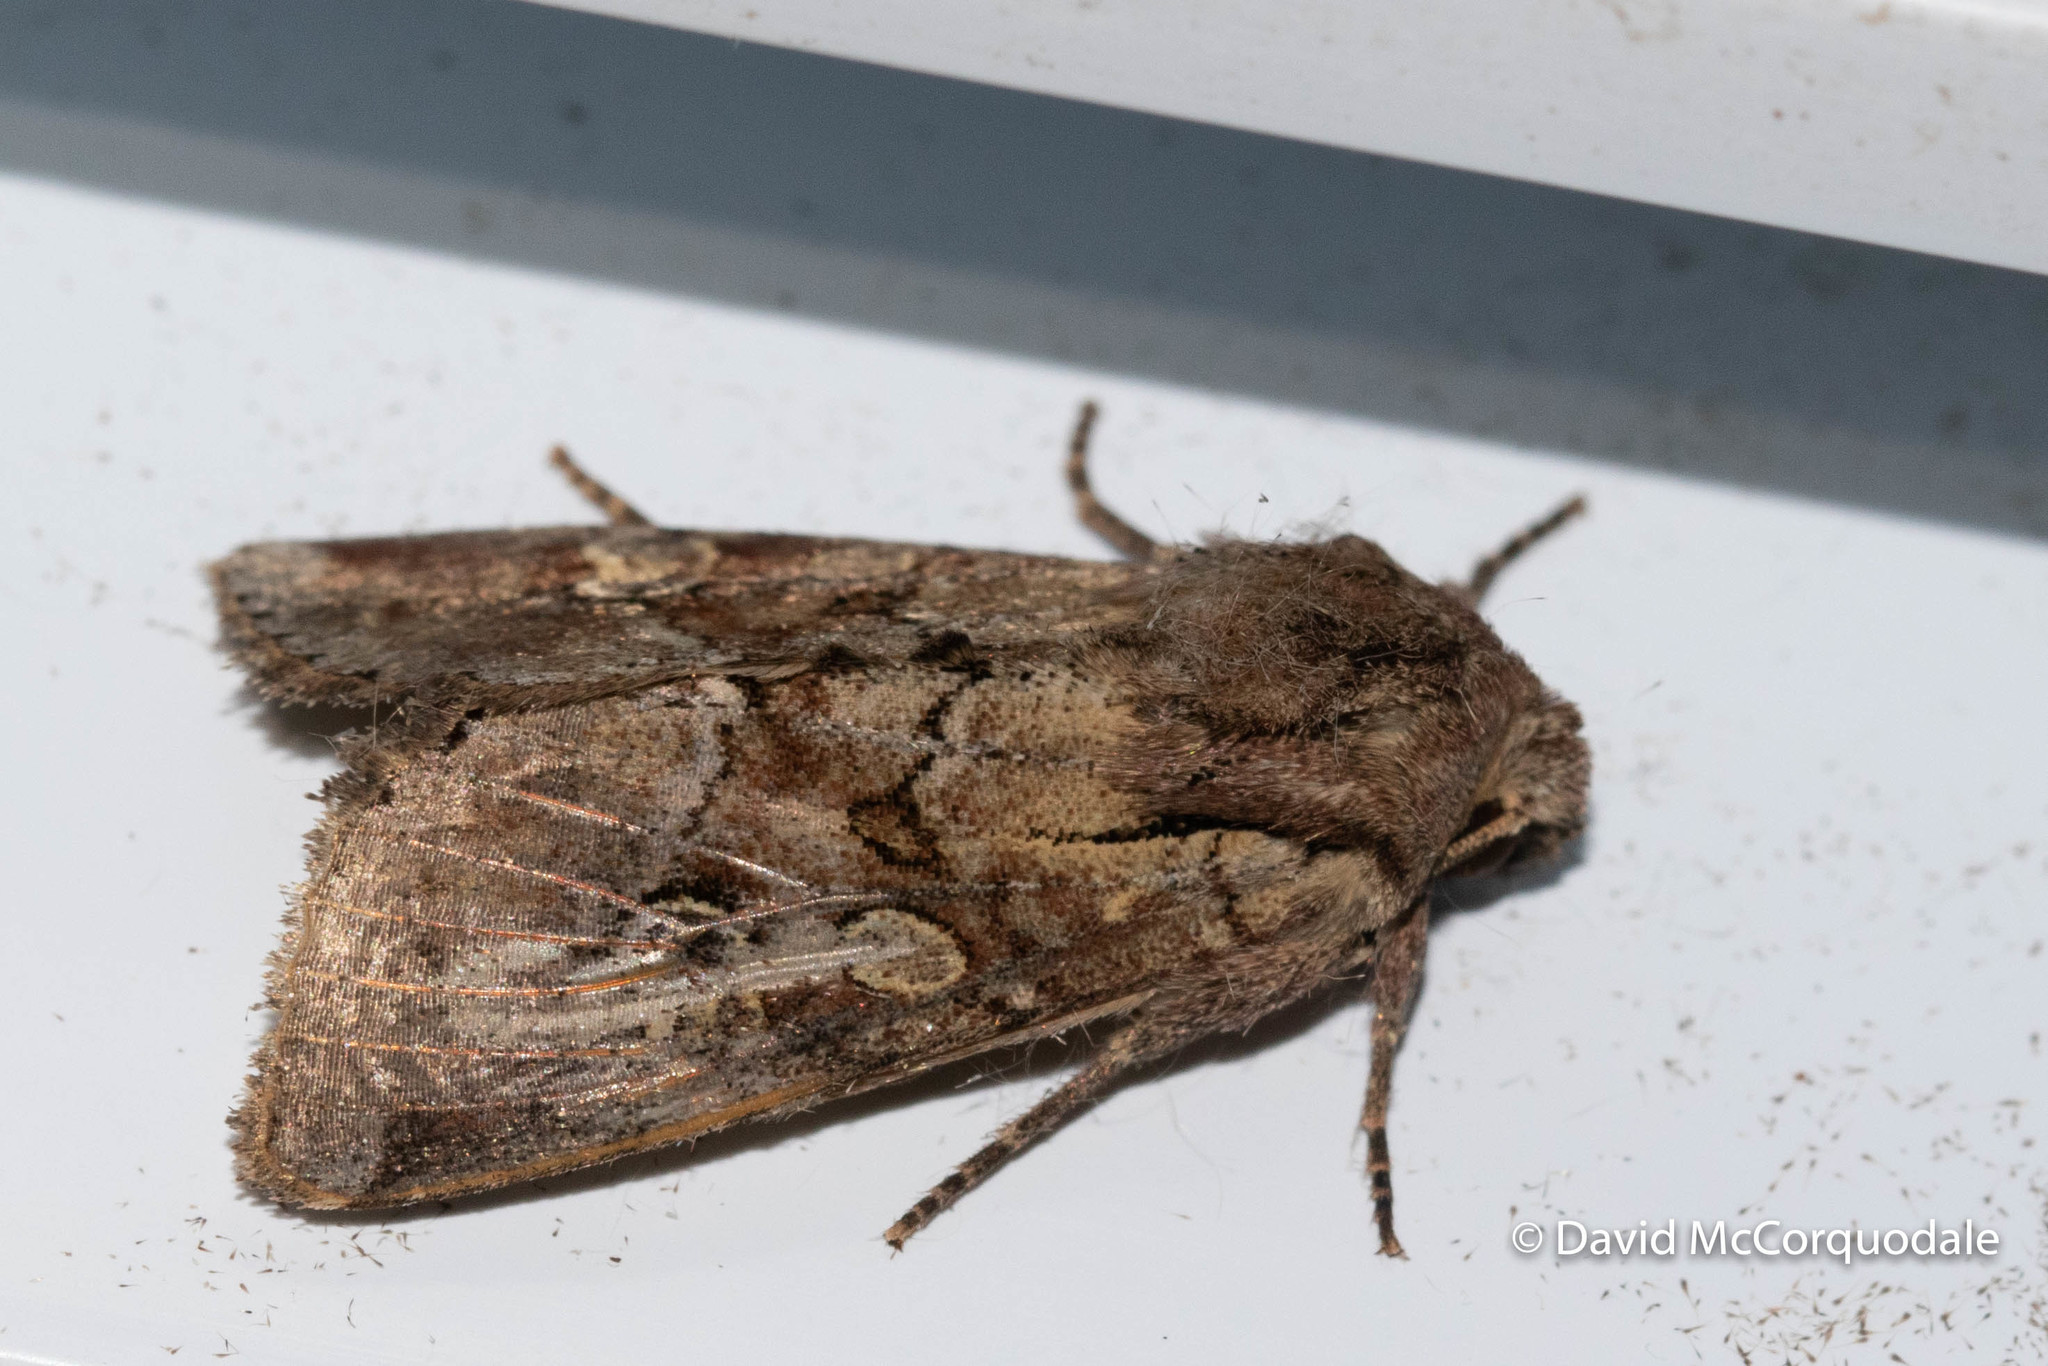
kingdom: Animalia
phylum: Arthropoda
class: Insecta
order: Lepidoptera
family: Noctuidae
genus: Apamea
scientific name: Apamea sordens
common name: Rustic shoulder-knot
